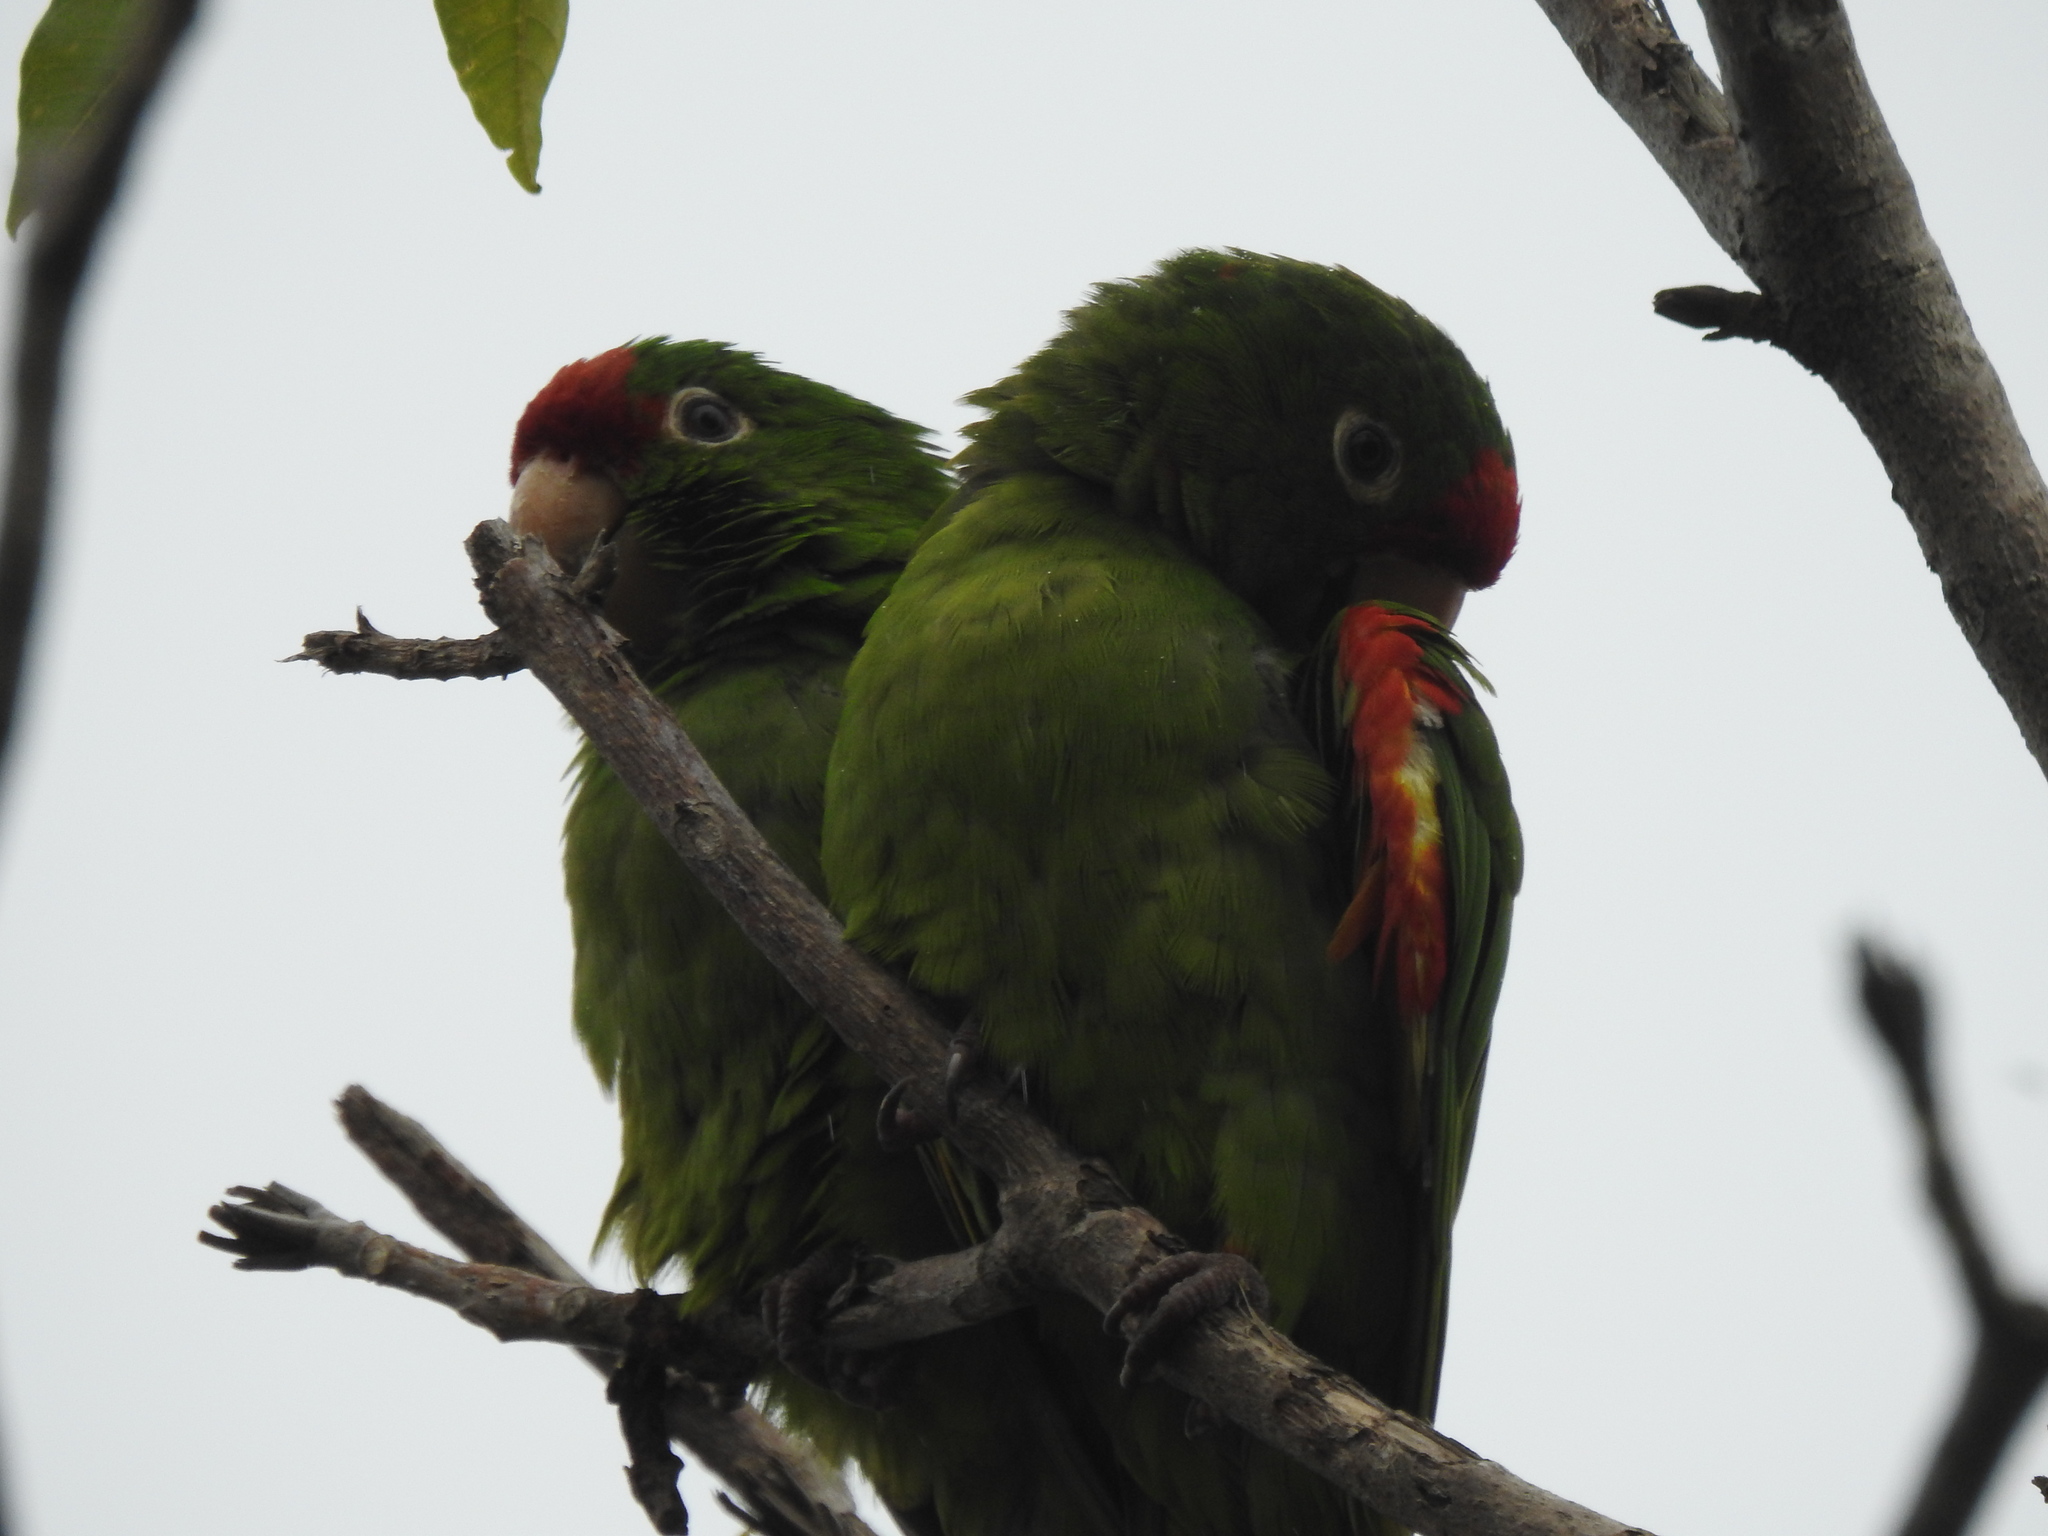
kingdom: Animalia
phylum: Chordata
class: Aves
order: Psittaciformes
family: Psittacidae
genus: Aratinga
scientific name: Aratinga finschi
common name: Crimson-fronted parakeet
